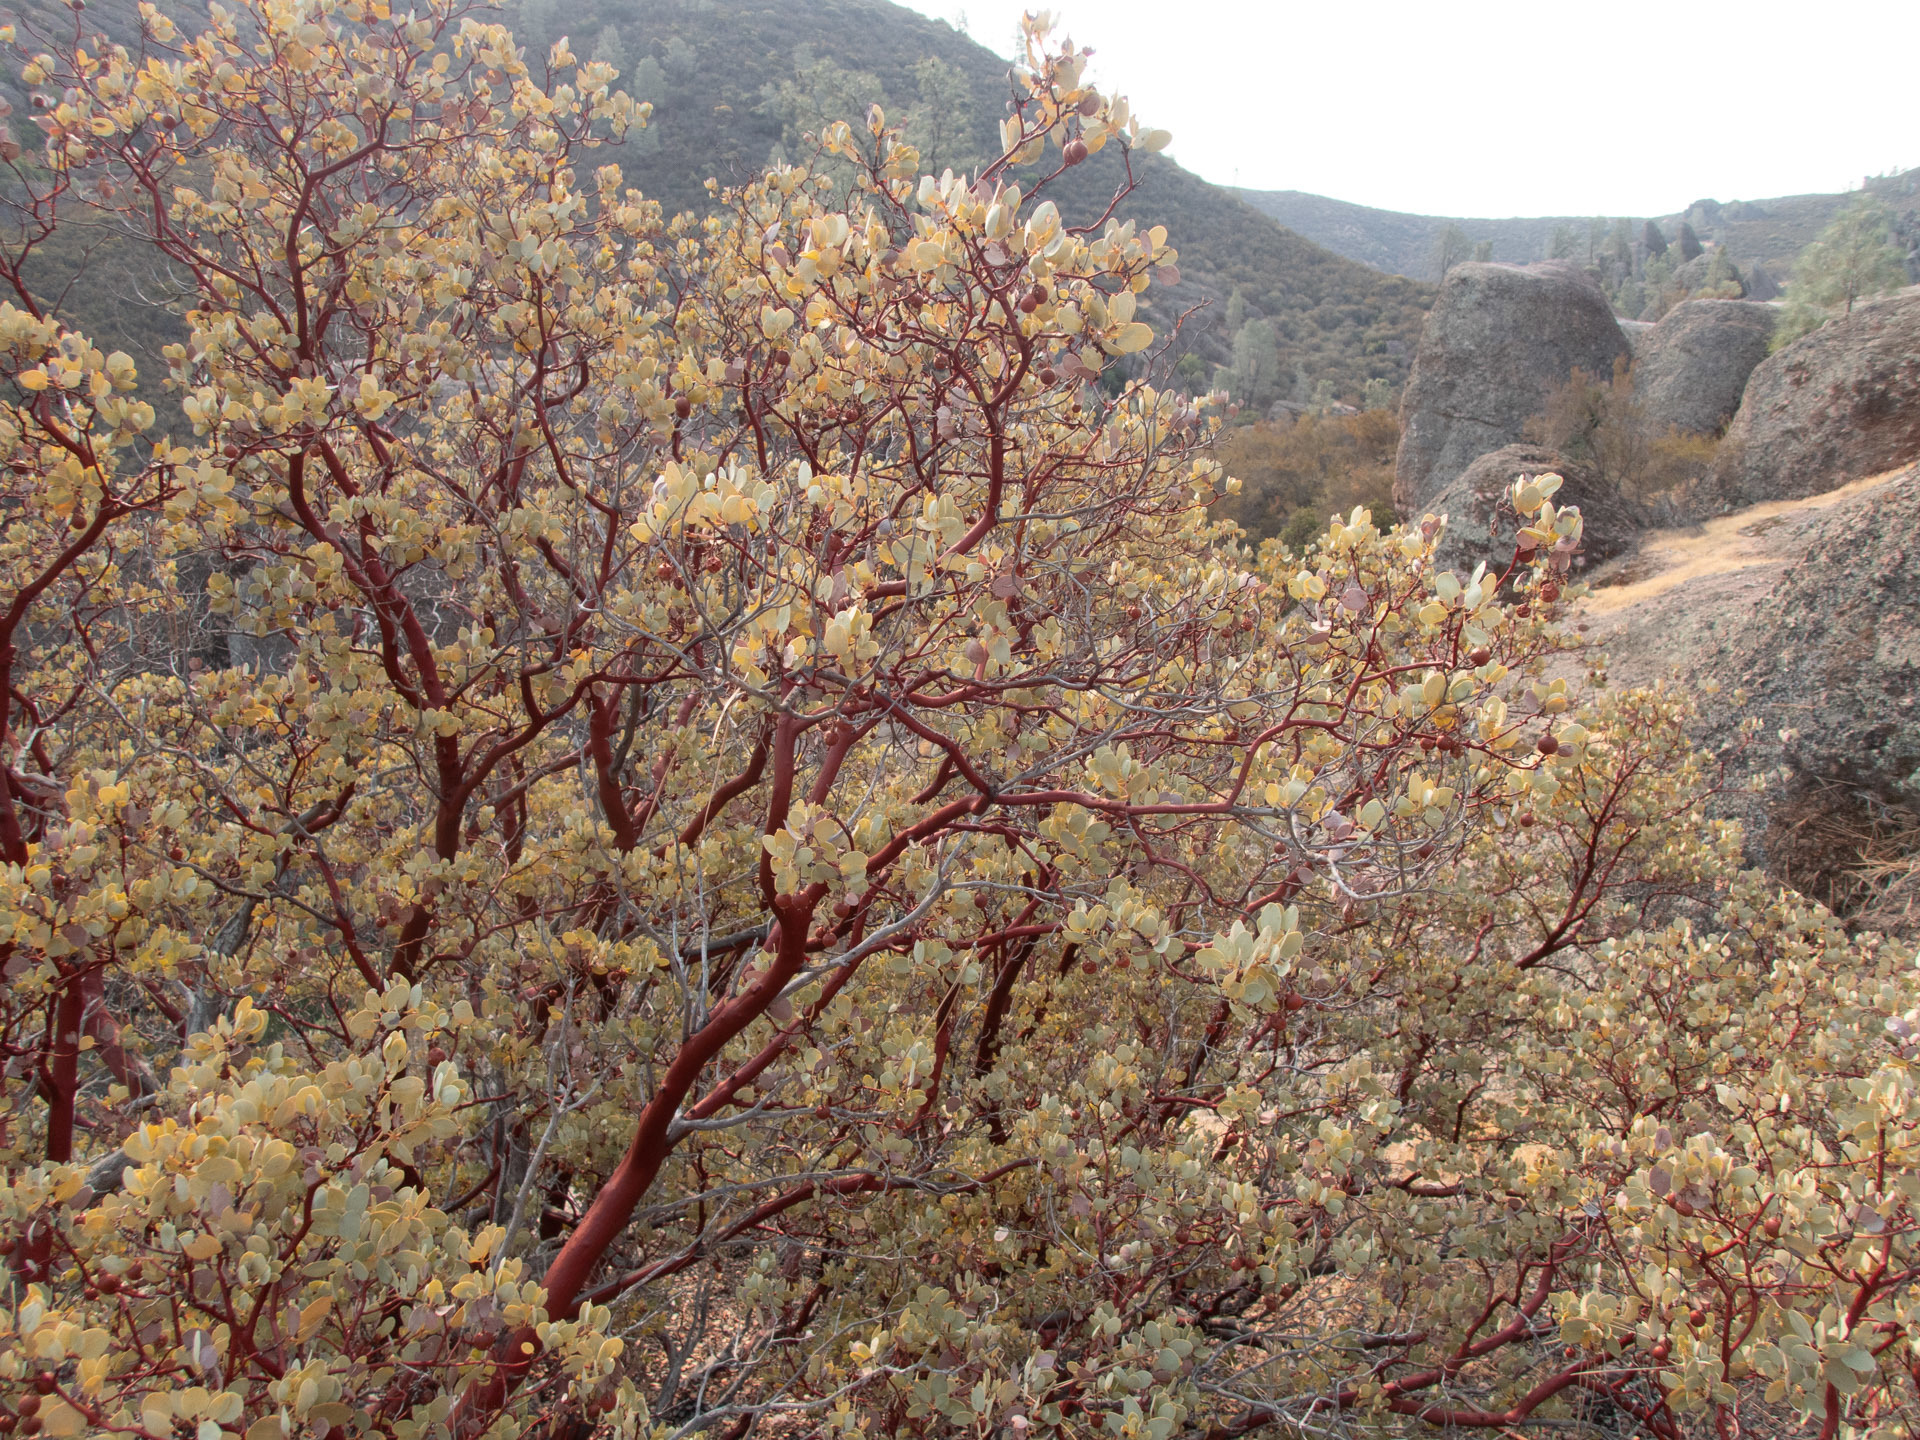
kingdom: Plantae
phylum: Tracheophyta
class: Magnoliopsida
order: Ericales
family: Ericaceae
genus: Arctostaphylos
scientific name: Arctostaphylos glauca
